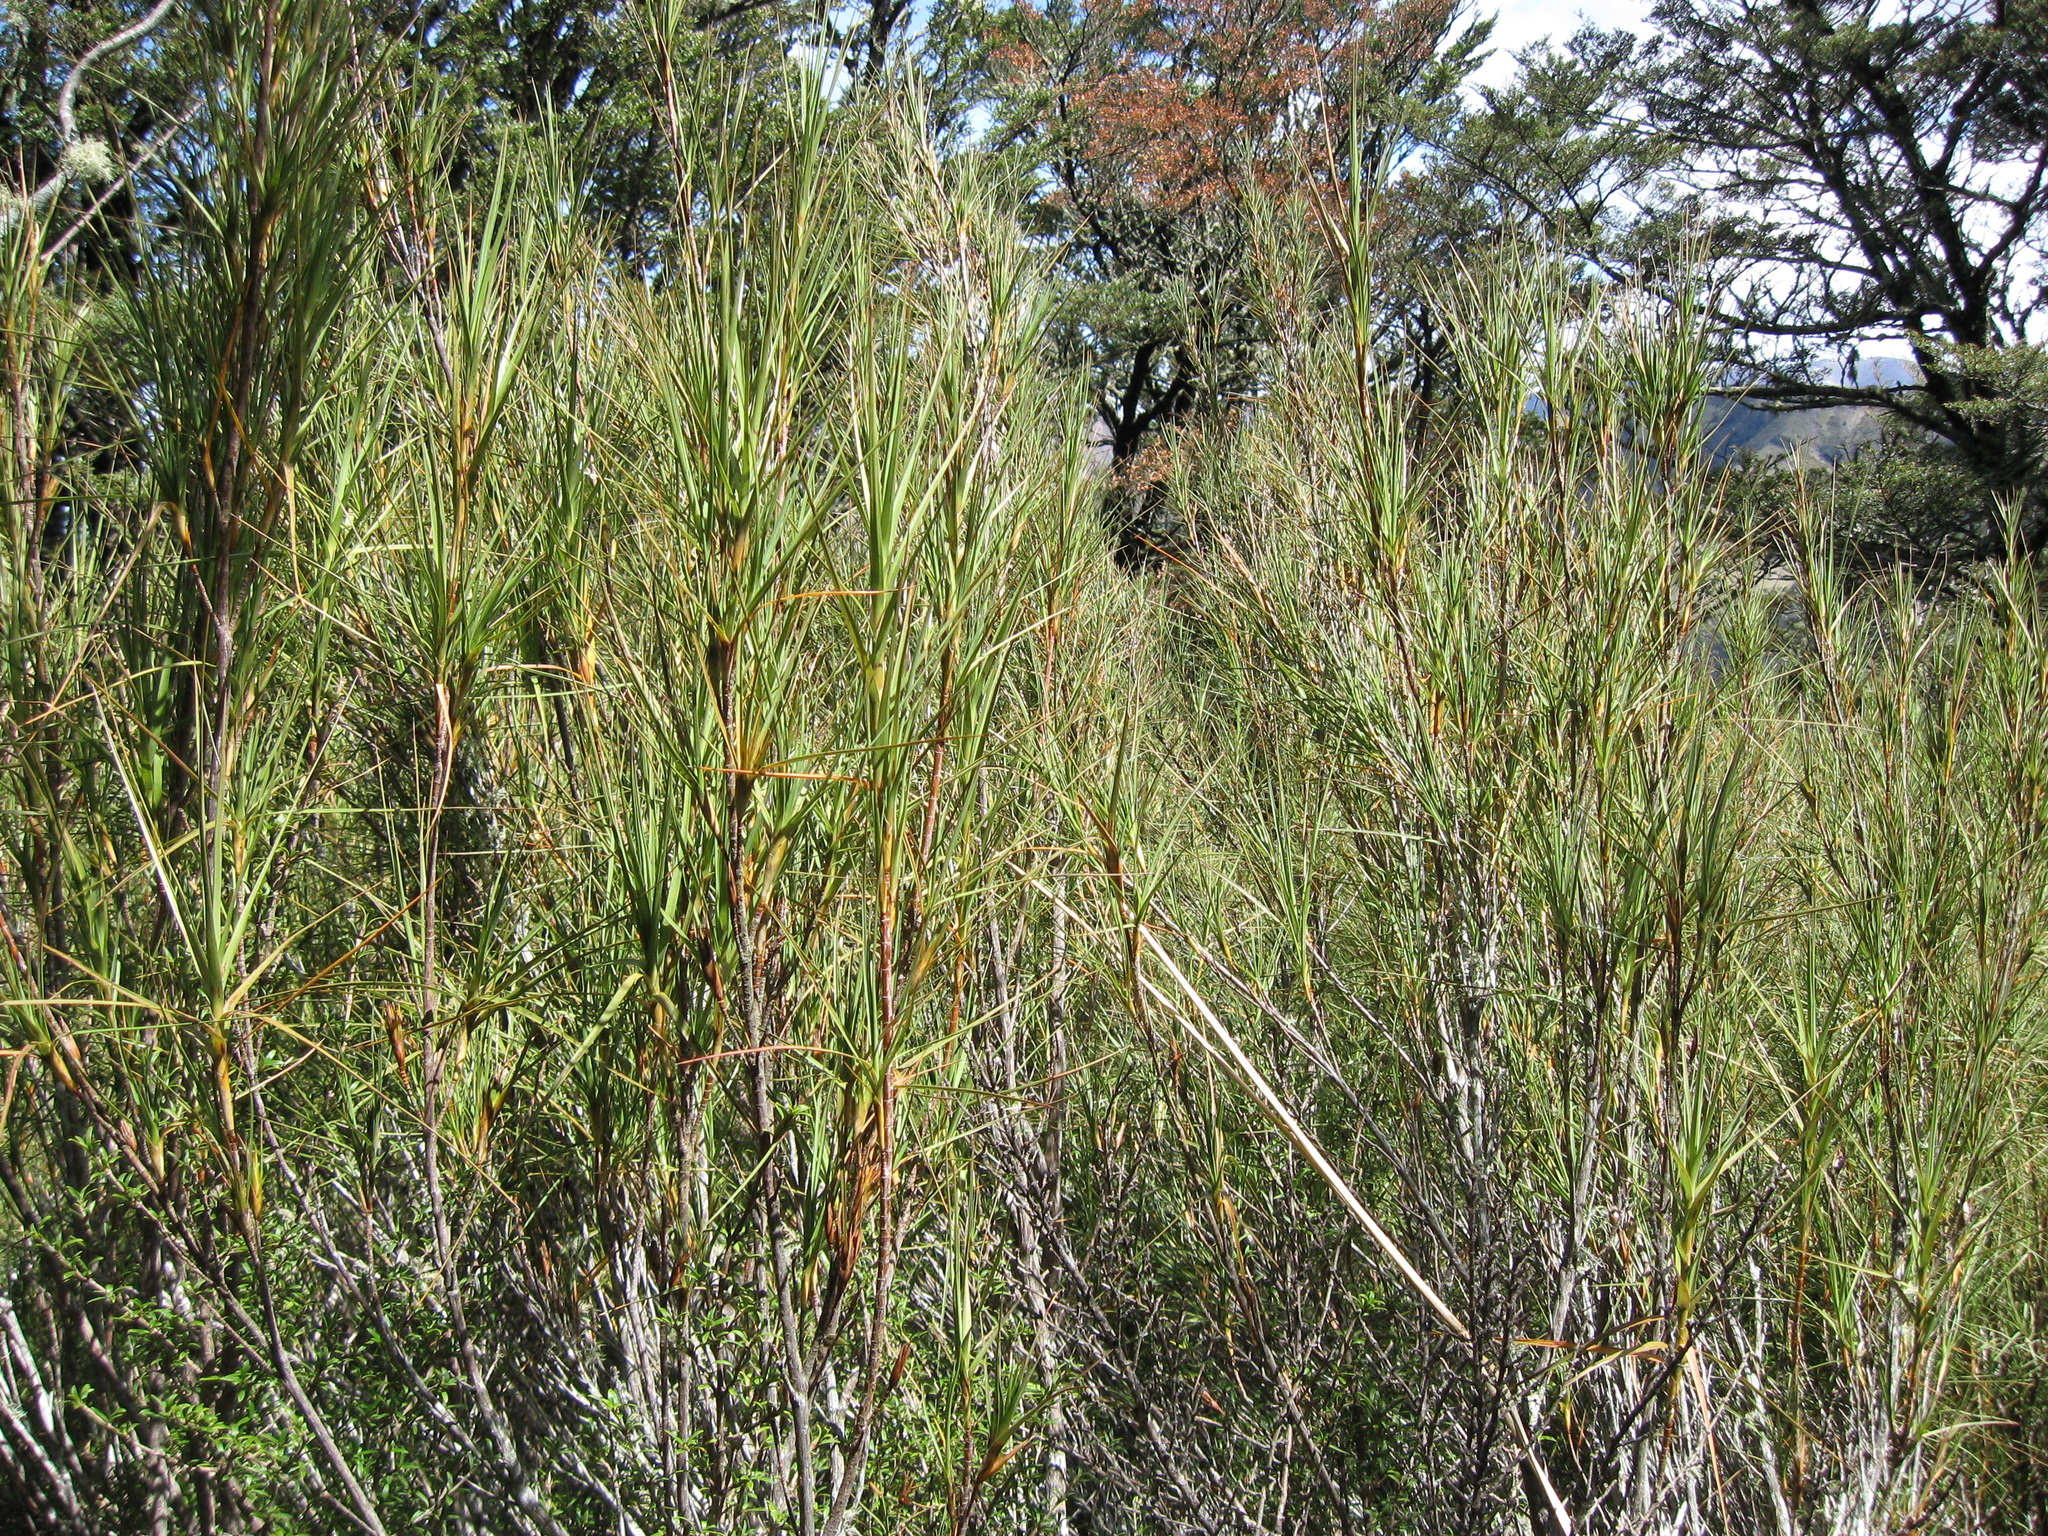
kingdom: Plantae
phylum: Tracheophyta
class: Magnoliopsida
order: Ericales
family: Ericaceae
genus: Dracophyllum
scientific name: Dracophyllum longifolium
